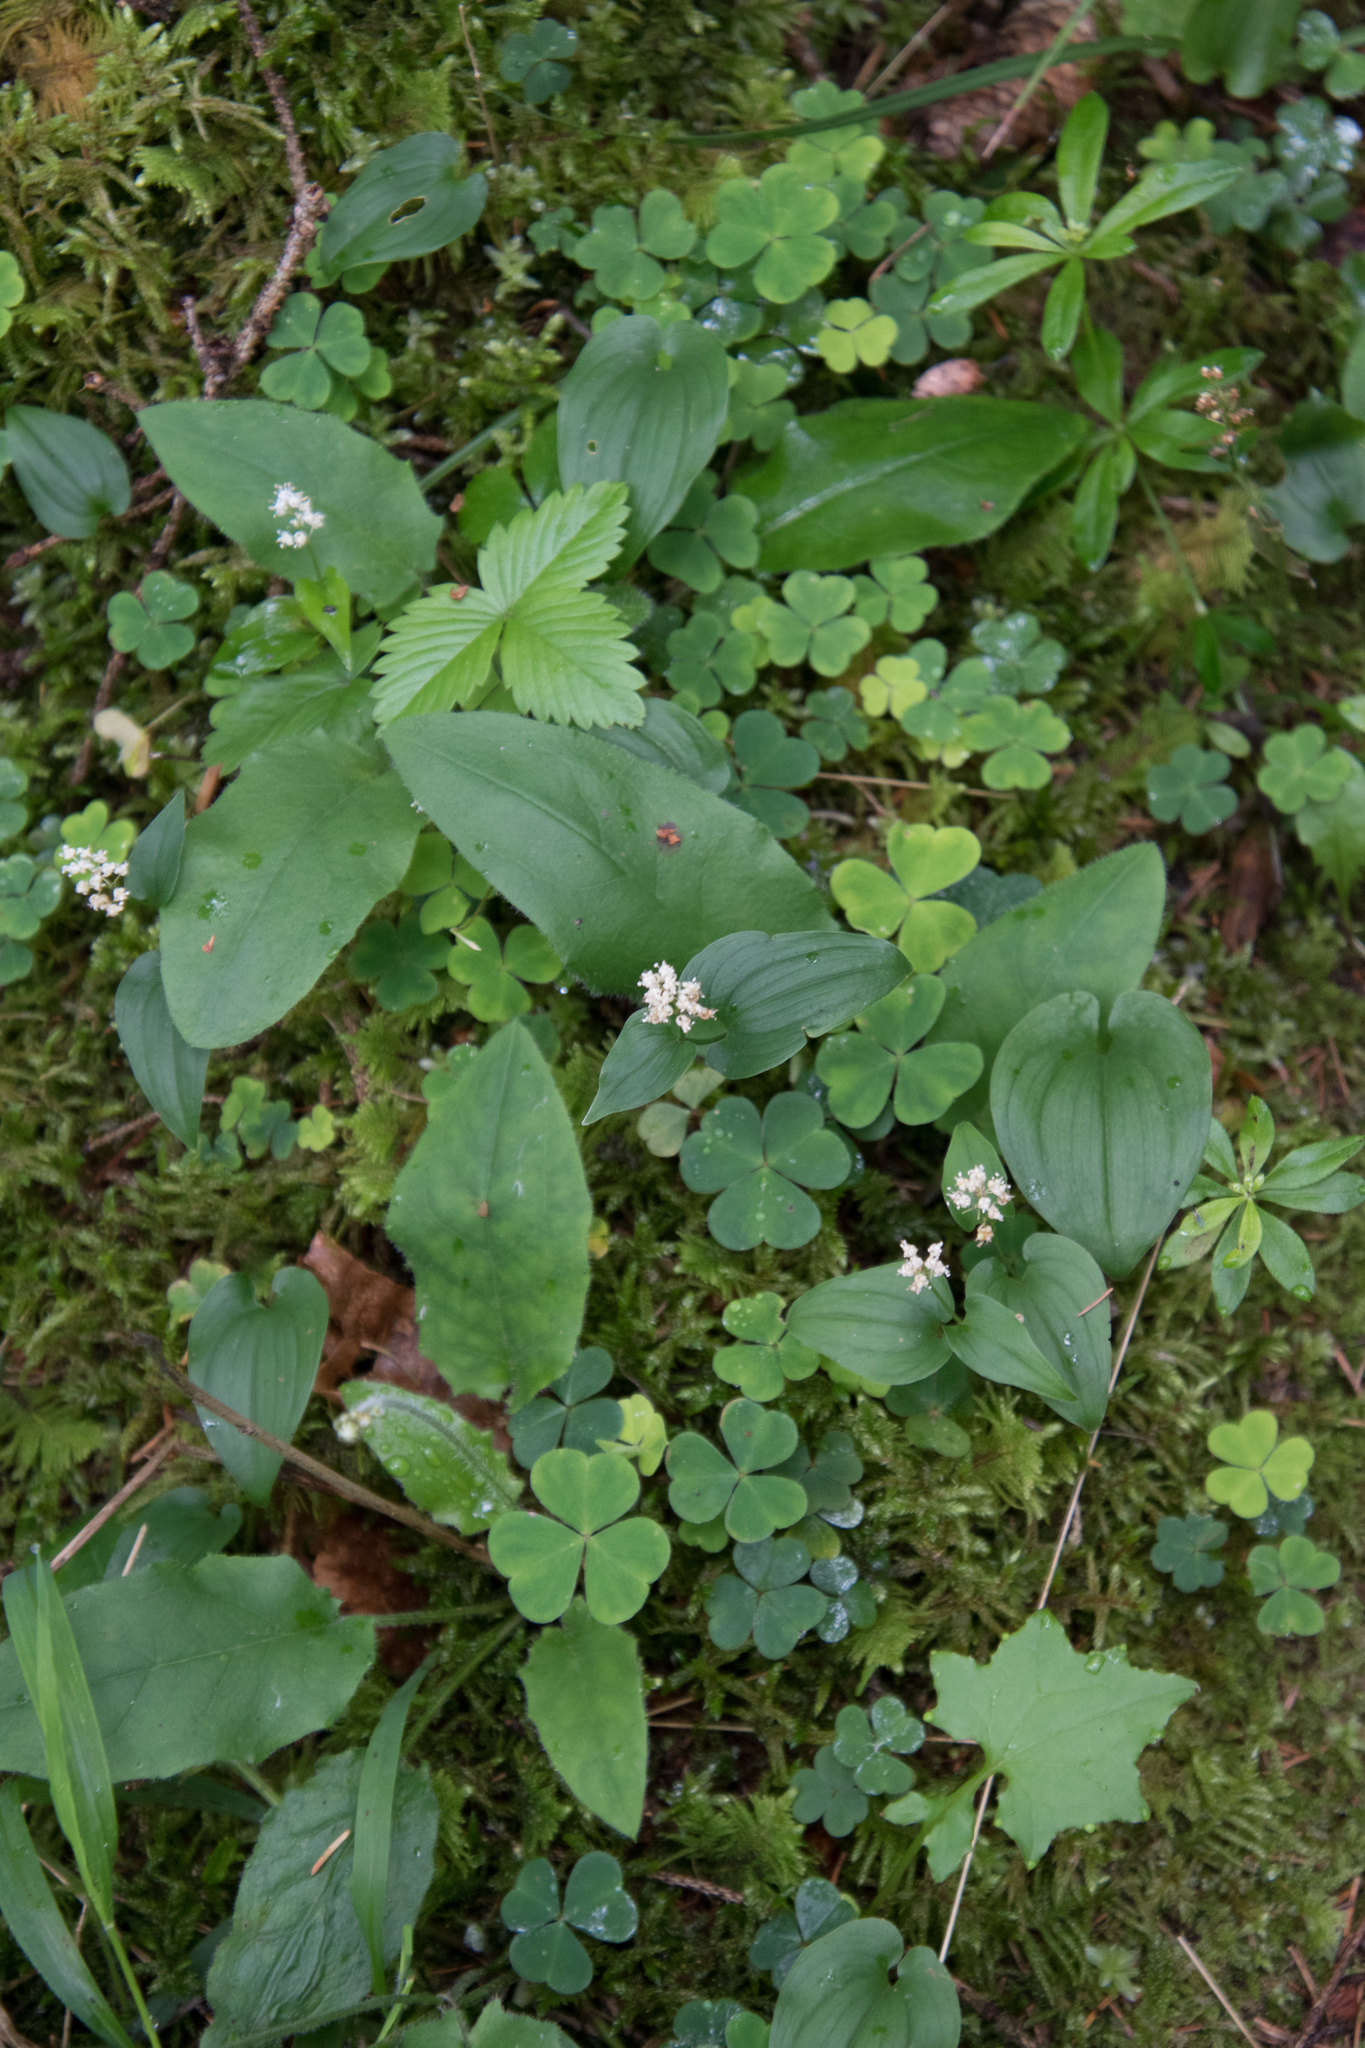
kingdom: Plantae
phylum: Tracheophyta
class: Liliopsida
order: Asparagales
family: Asparagaceae
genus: Maianthemum
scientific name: Maianthemum bifolium
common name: May lily
